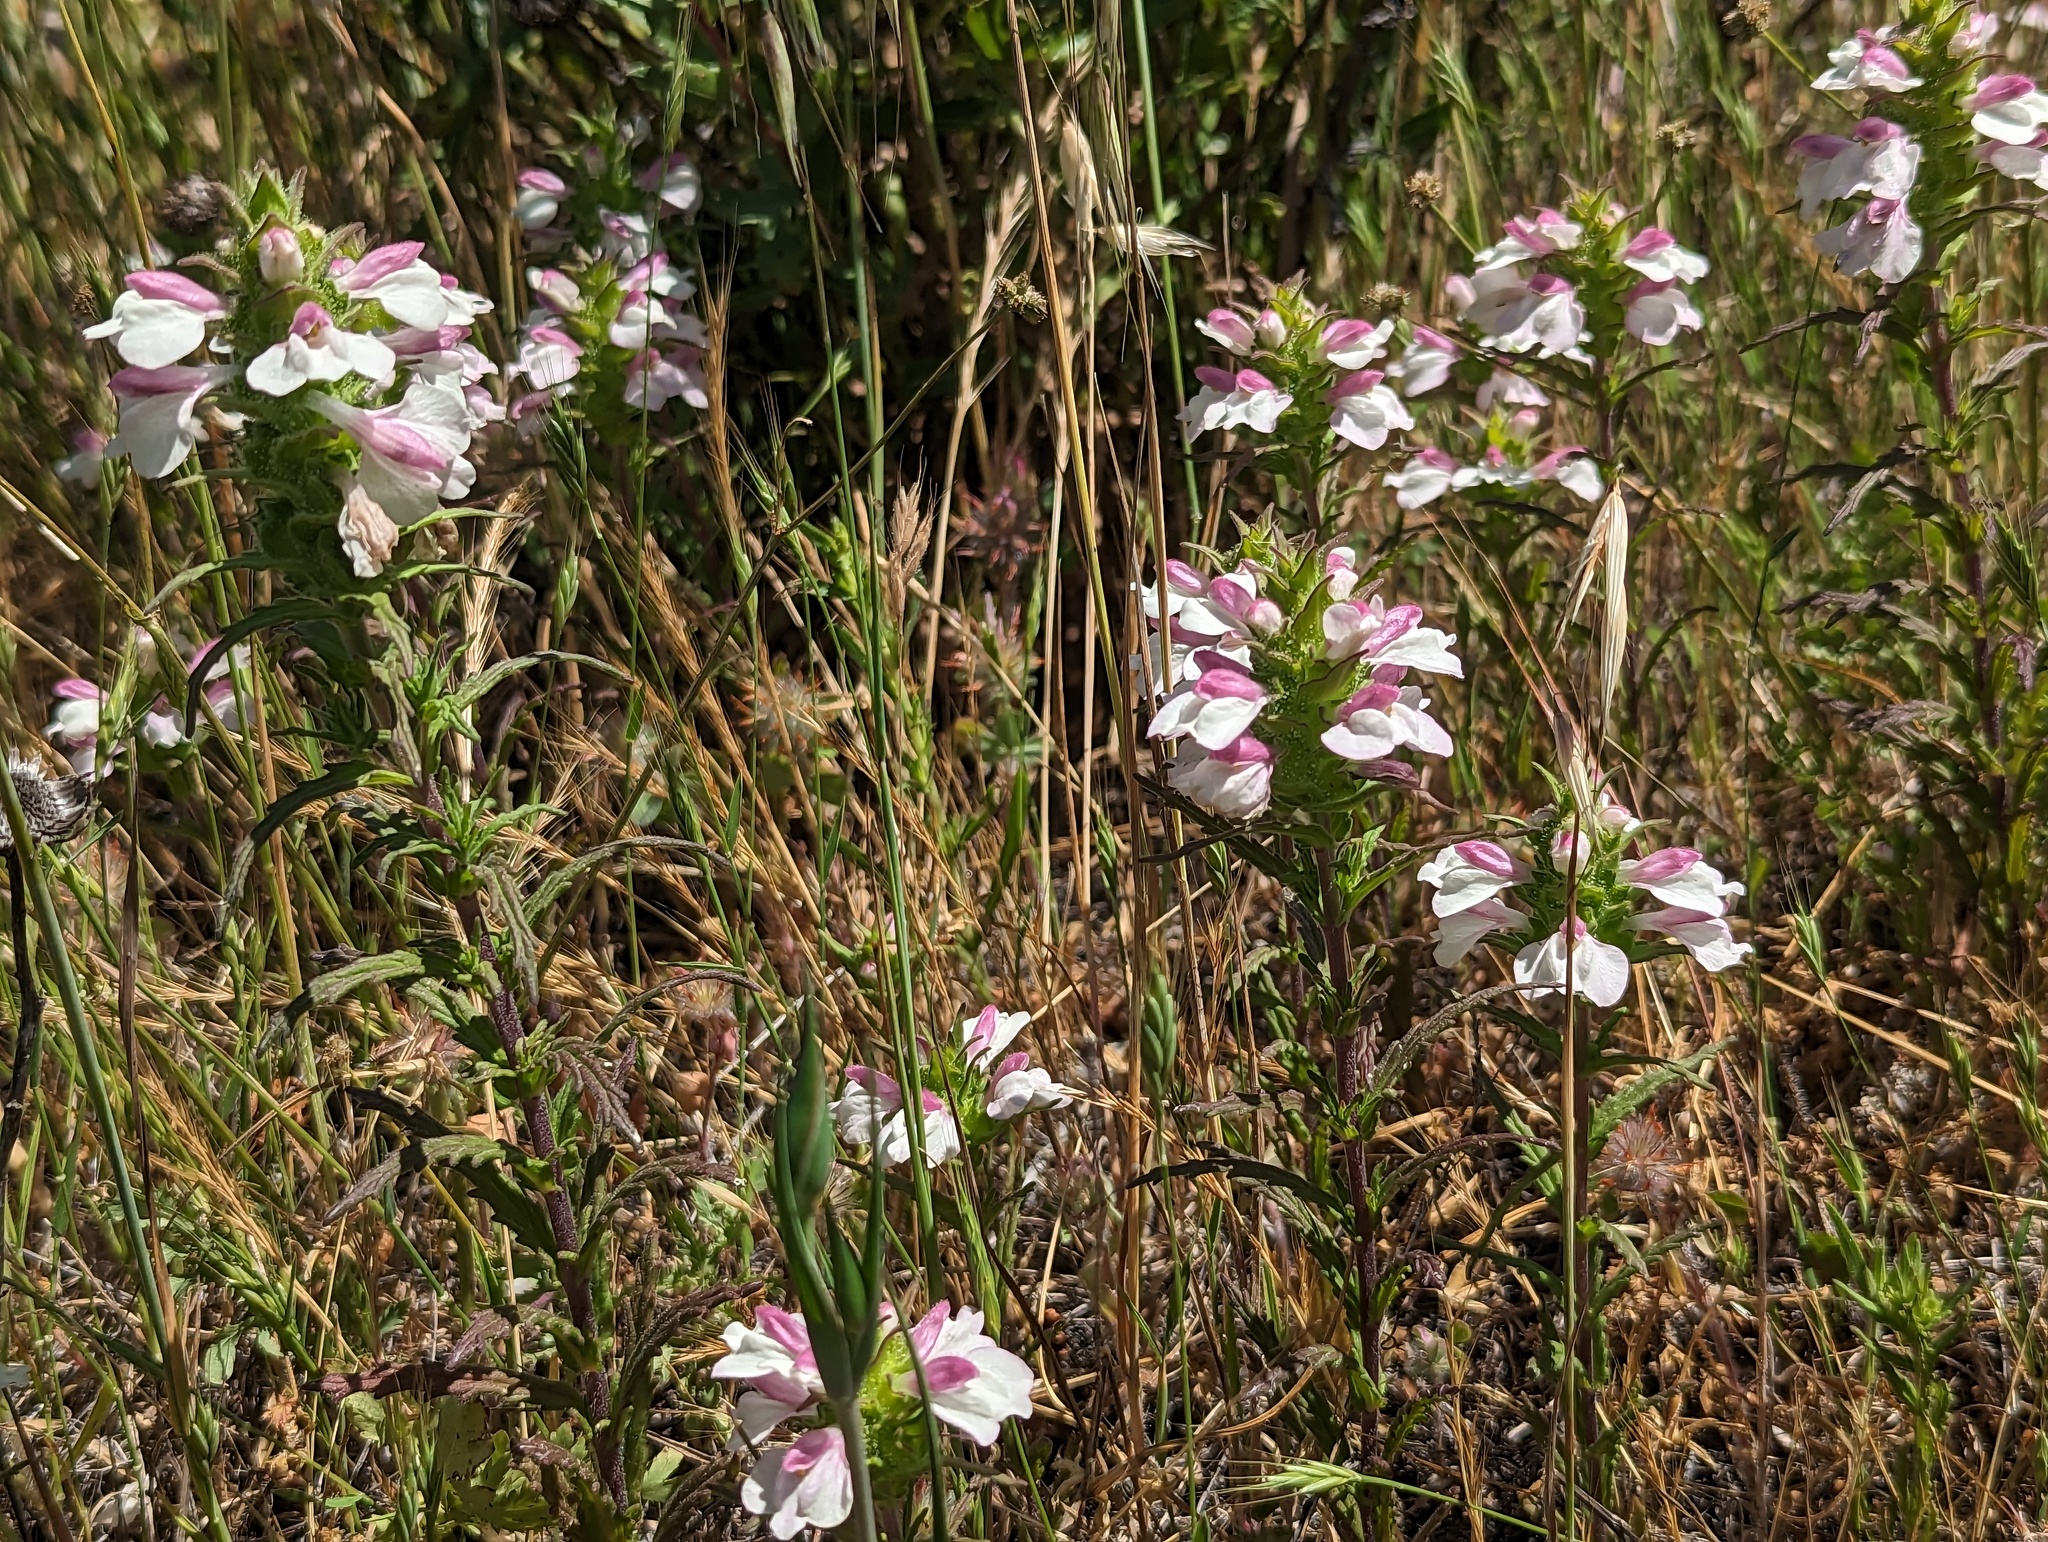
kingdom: Plantae
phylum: Tracheophyta
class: Magnoliopsida
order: Lamiales
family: Orobanchaceae
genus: Bellardia
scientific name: Bellardia trixago
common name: Mediterranean lineseed
